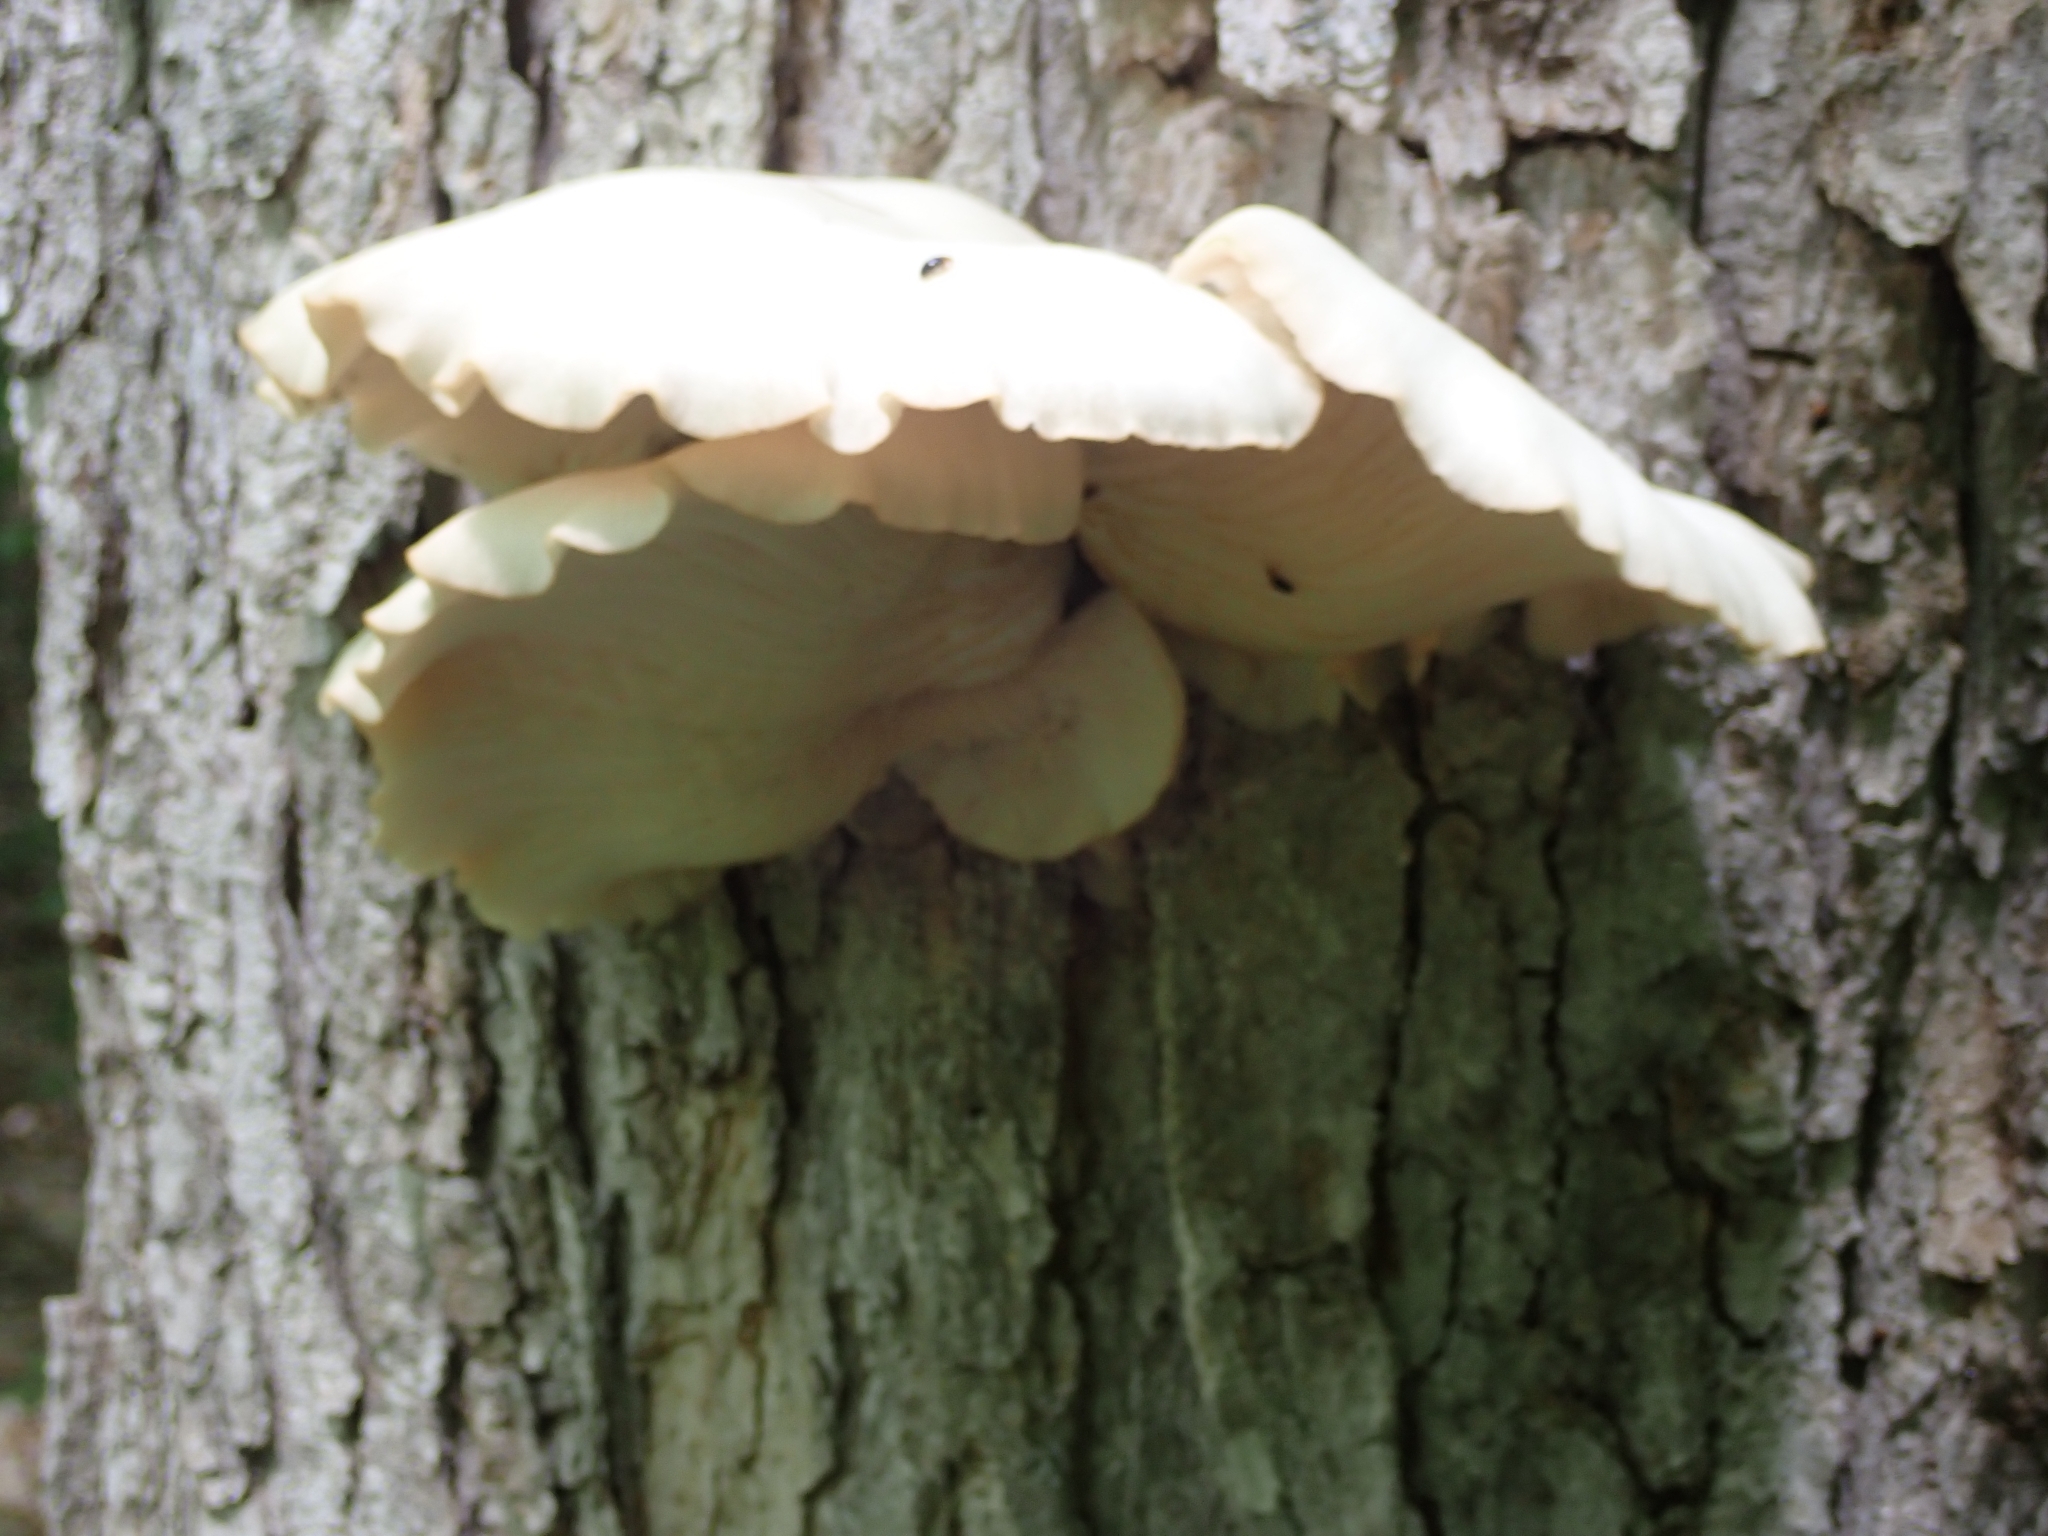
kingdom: Animalia
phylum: Arthropoda
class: Insecta
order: Coleoptera
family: Erotylidae
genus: Triplax
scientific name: Triplax thoracica
